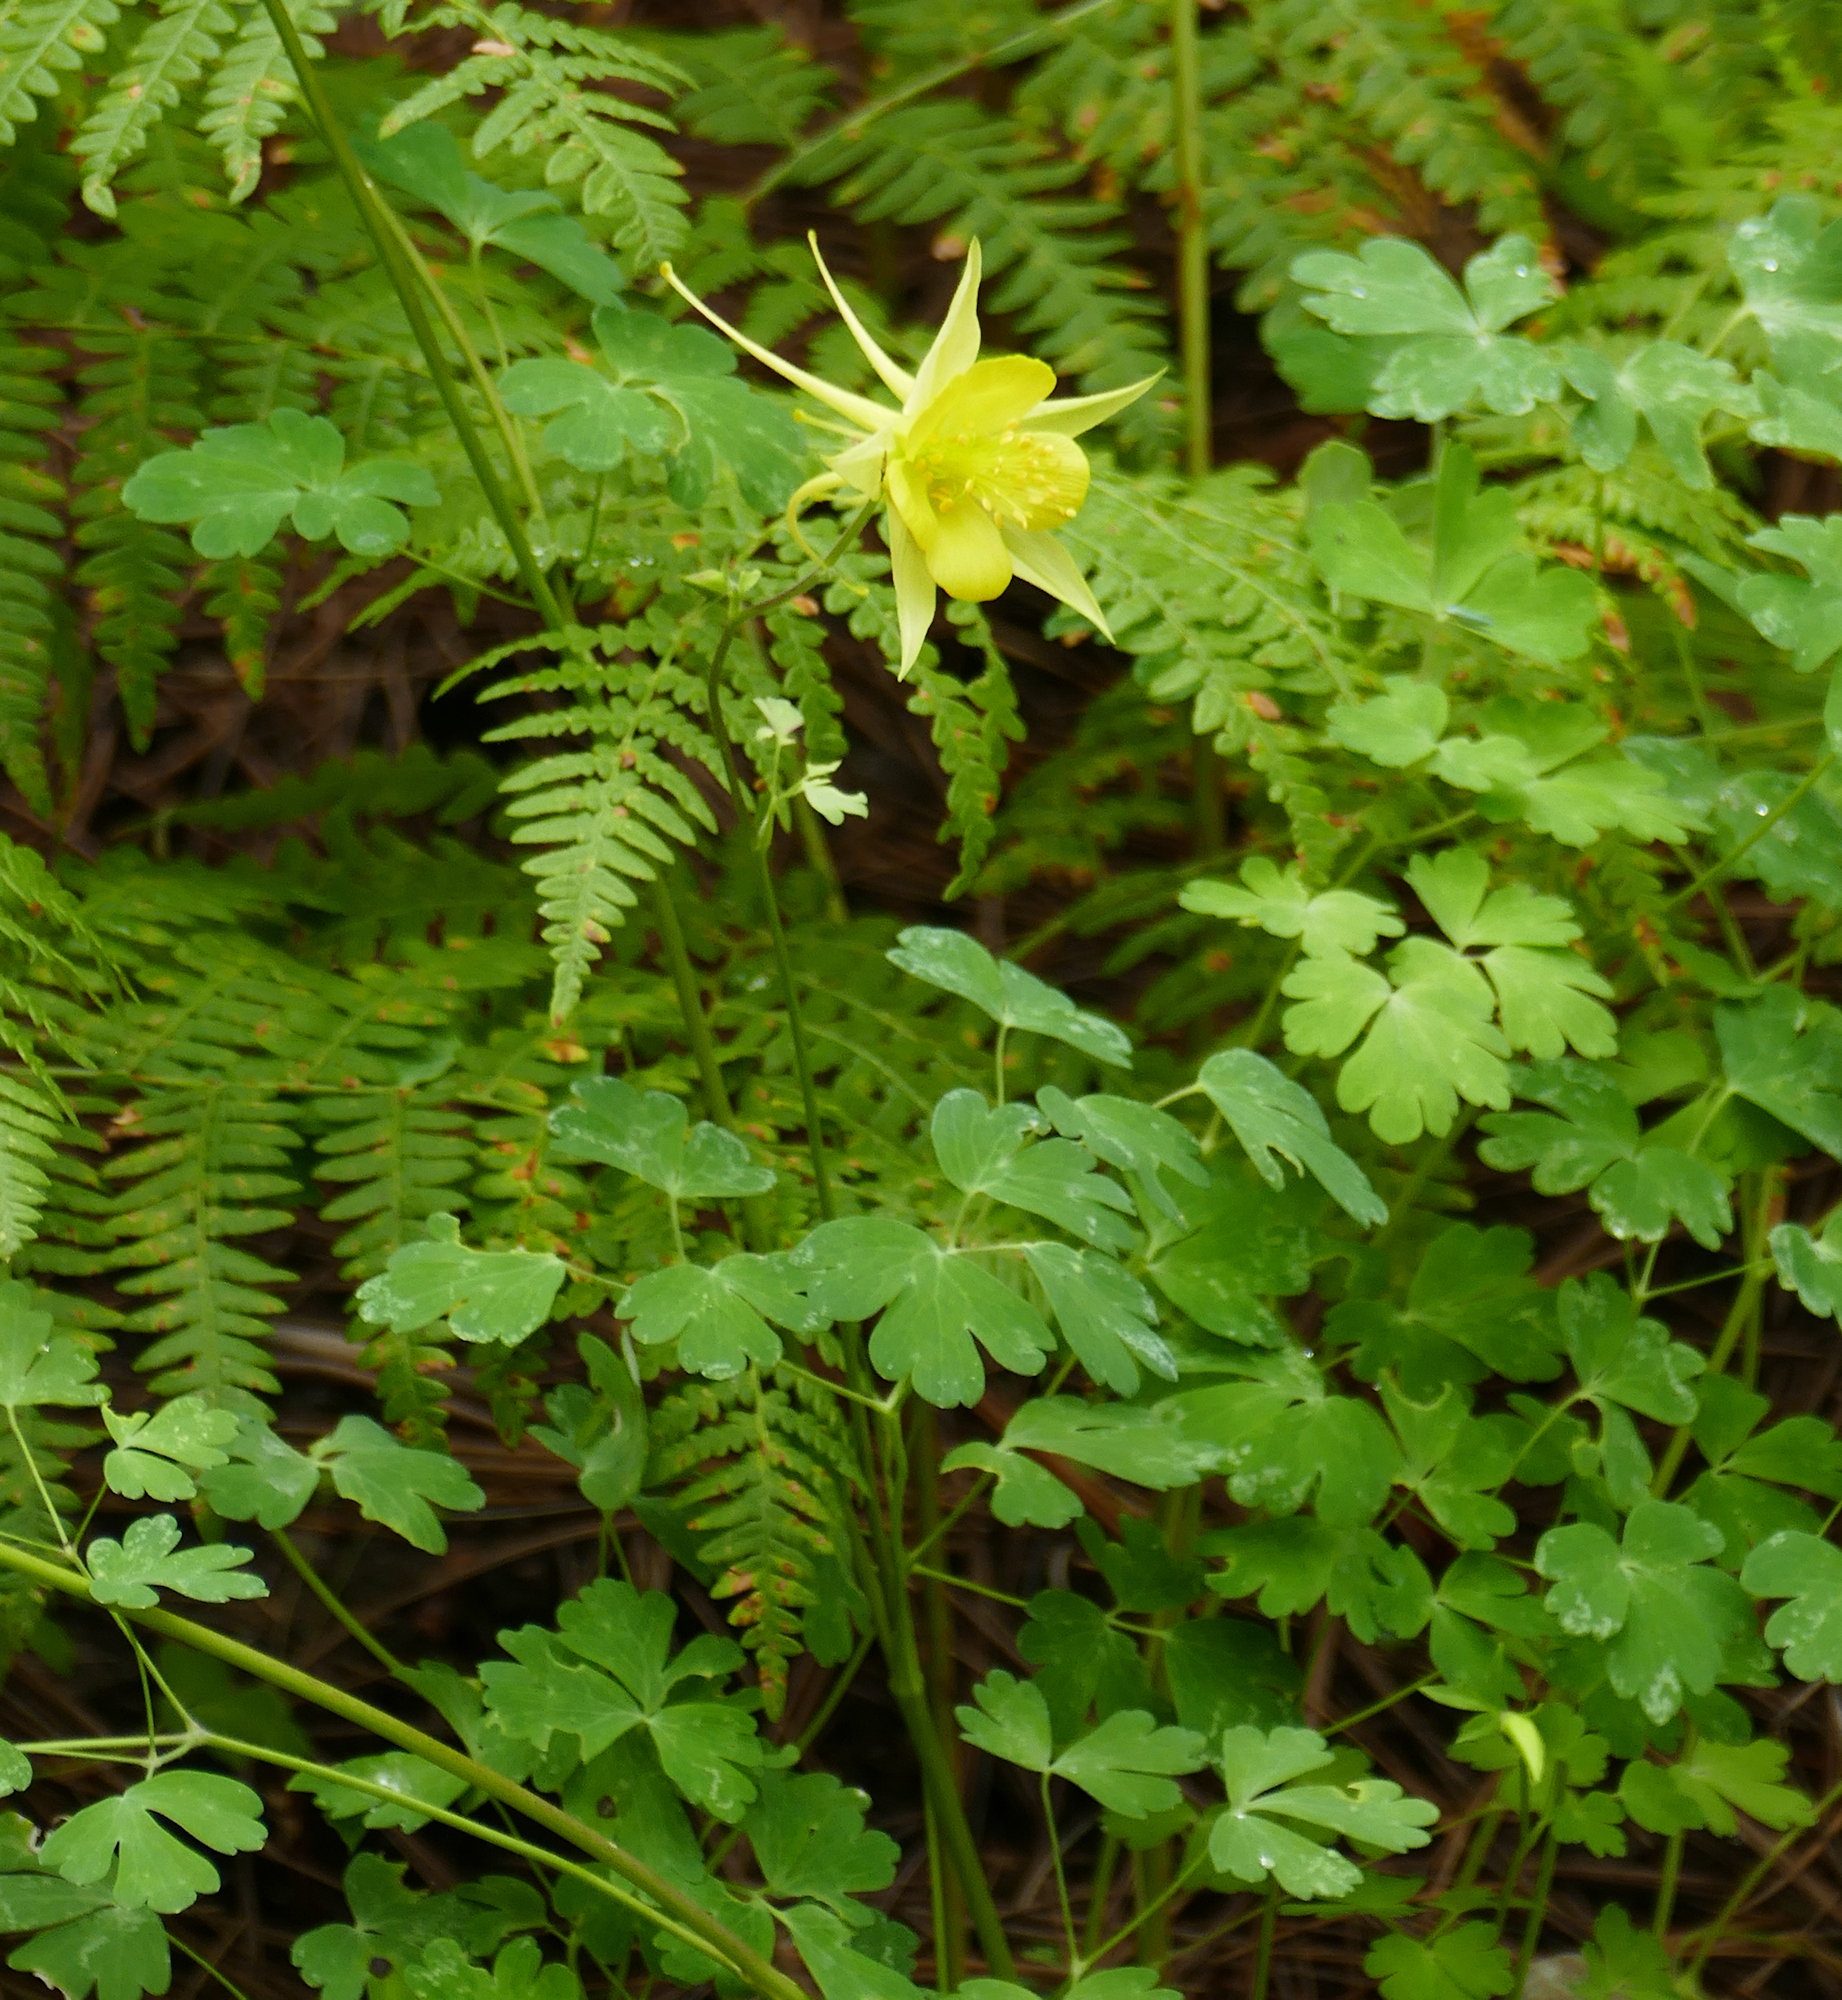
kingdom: Plantae
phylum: Tracheophyta
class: Magnoliopsida
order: Ranunculales
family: Ranunculaceae
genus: Aquilegia
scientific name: Aquilegia chrysantha
